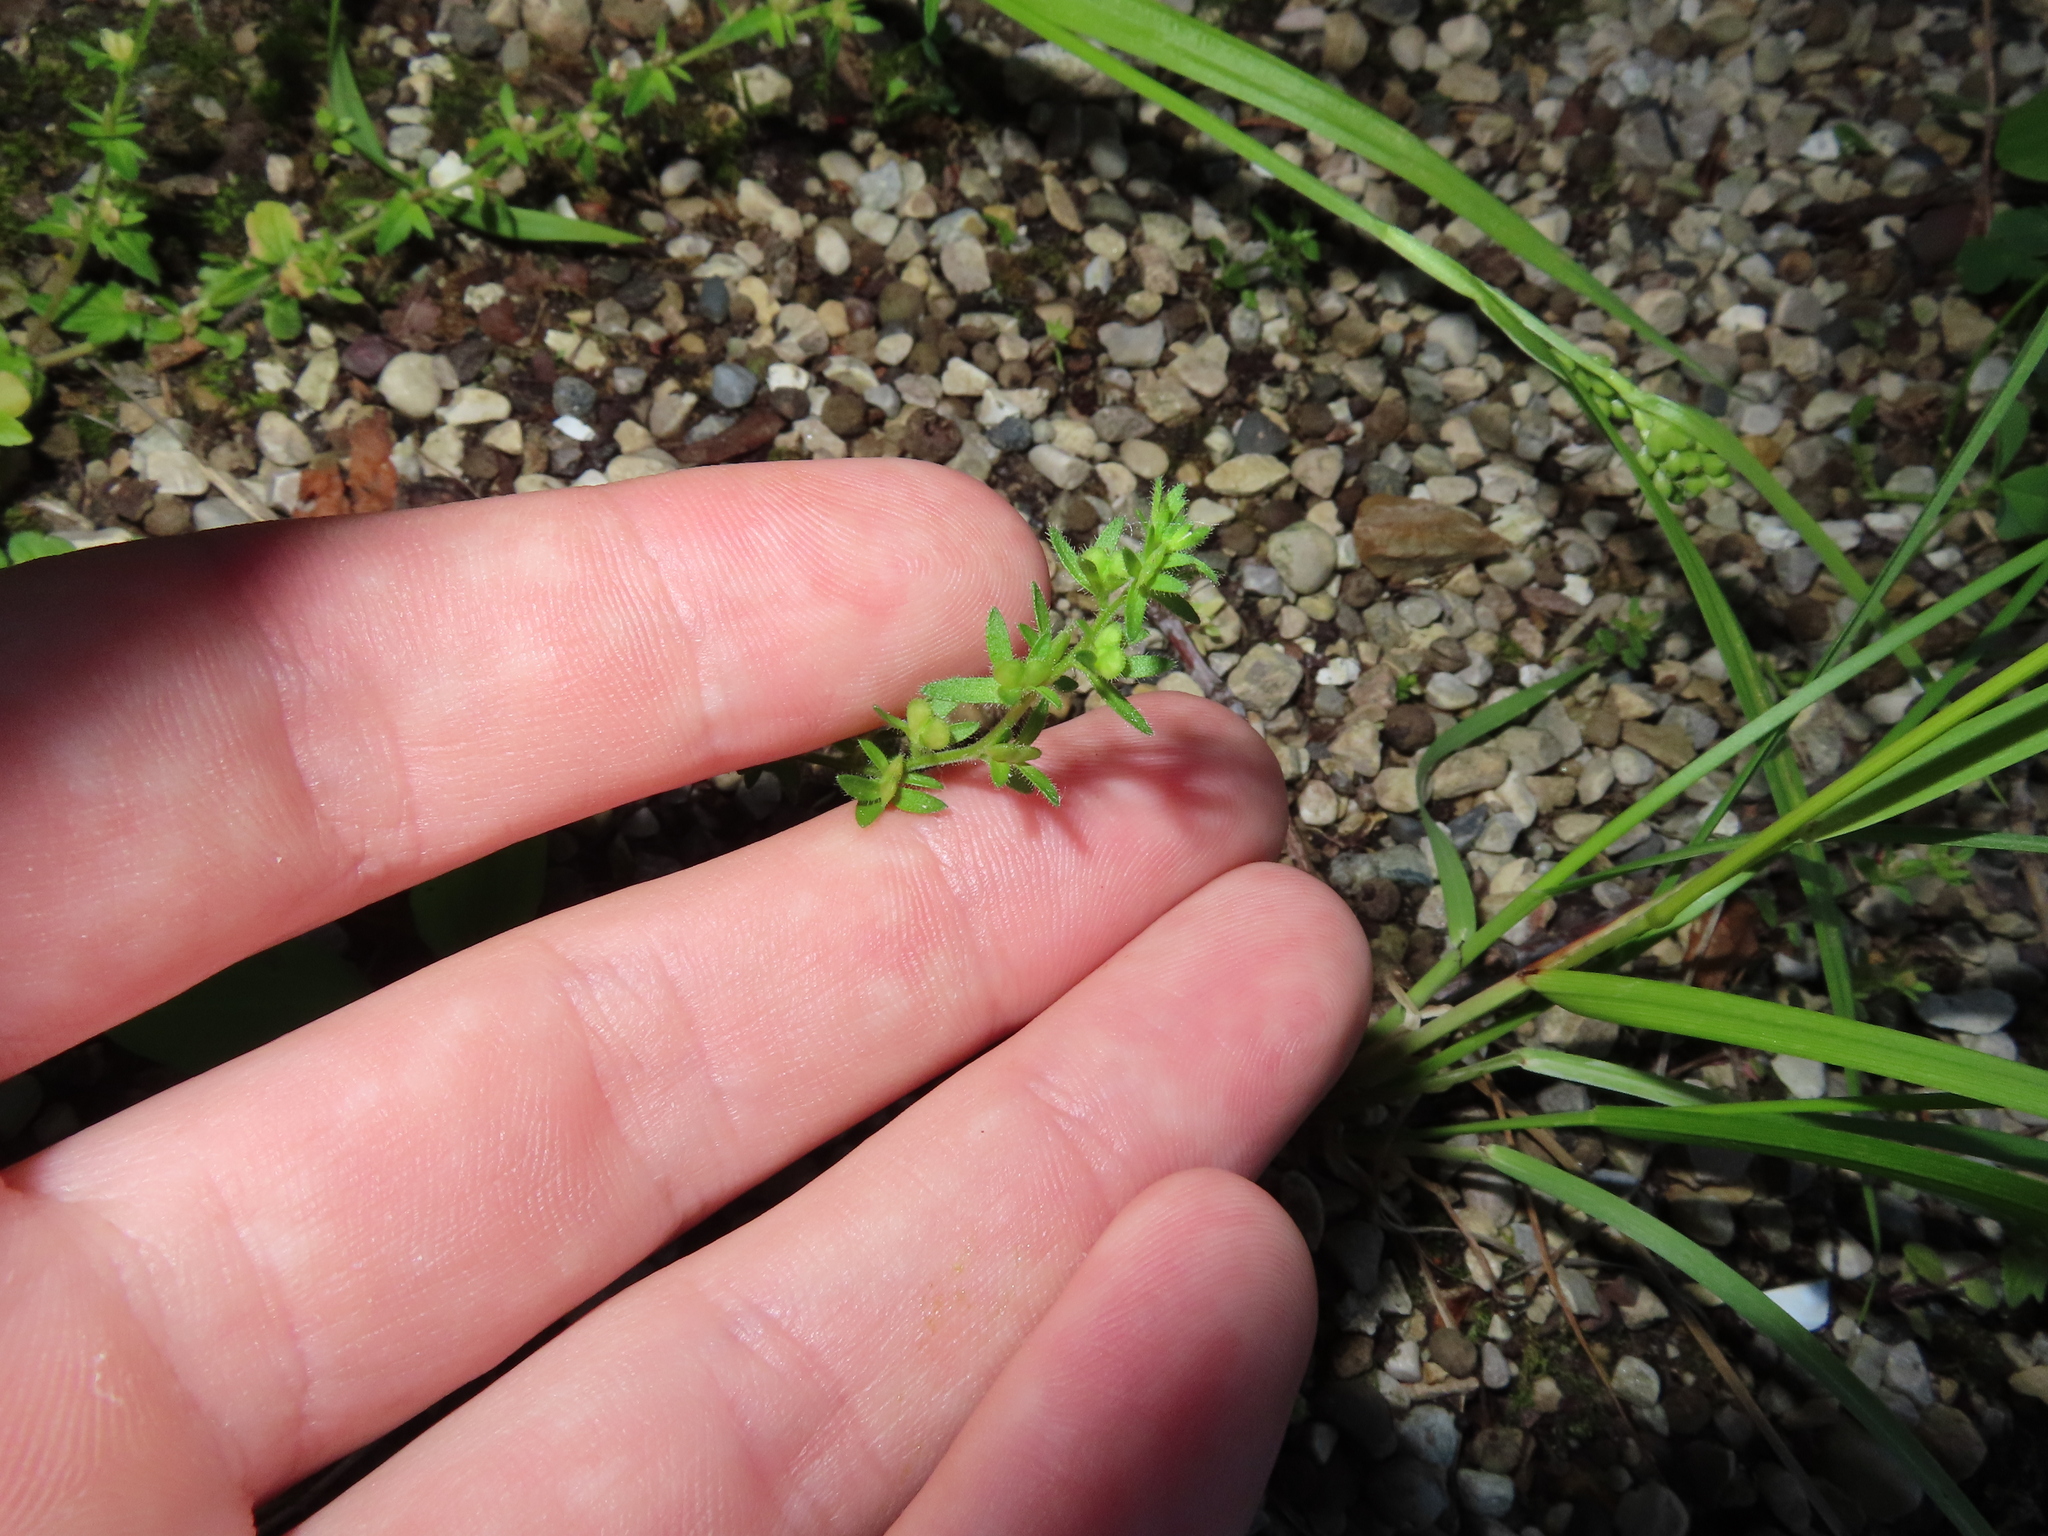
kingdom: Plantae
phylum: Tracheophyta
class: Magnoliopsida
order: Lamiales
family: Plantaginaceae
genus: Veronica
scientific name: Veronica arvensis
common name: Corn speedwell
